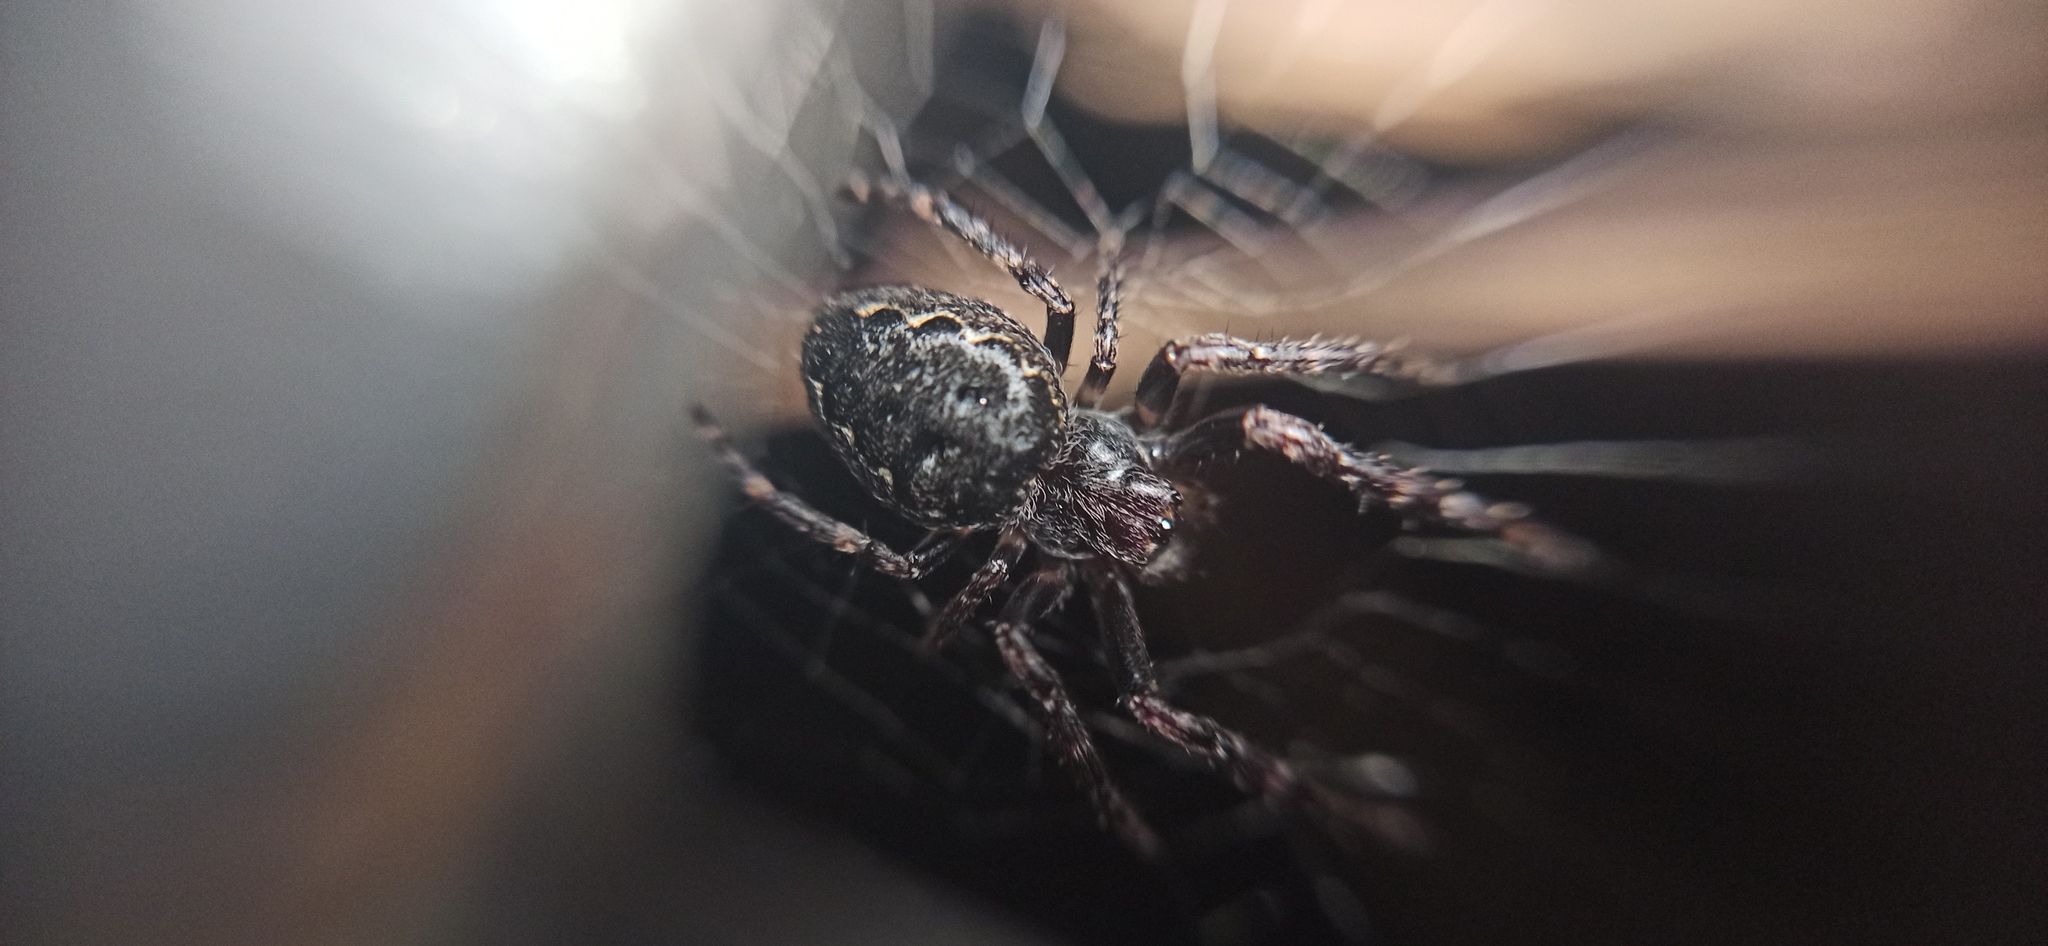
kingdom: Animalia
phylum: Arthropoda
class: Arachnida
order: Araneae
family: Araneidae
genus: Nuctenea
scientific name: Nuctenea umbratica
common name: Toad spider
